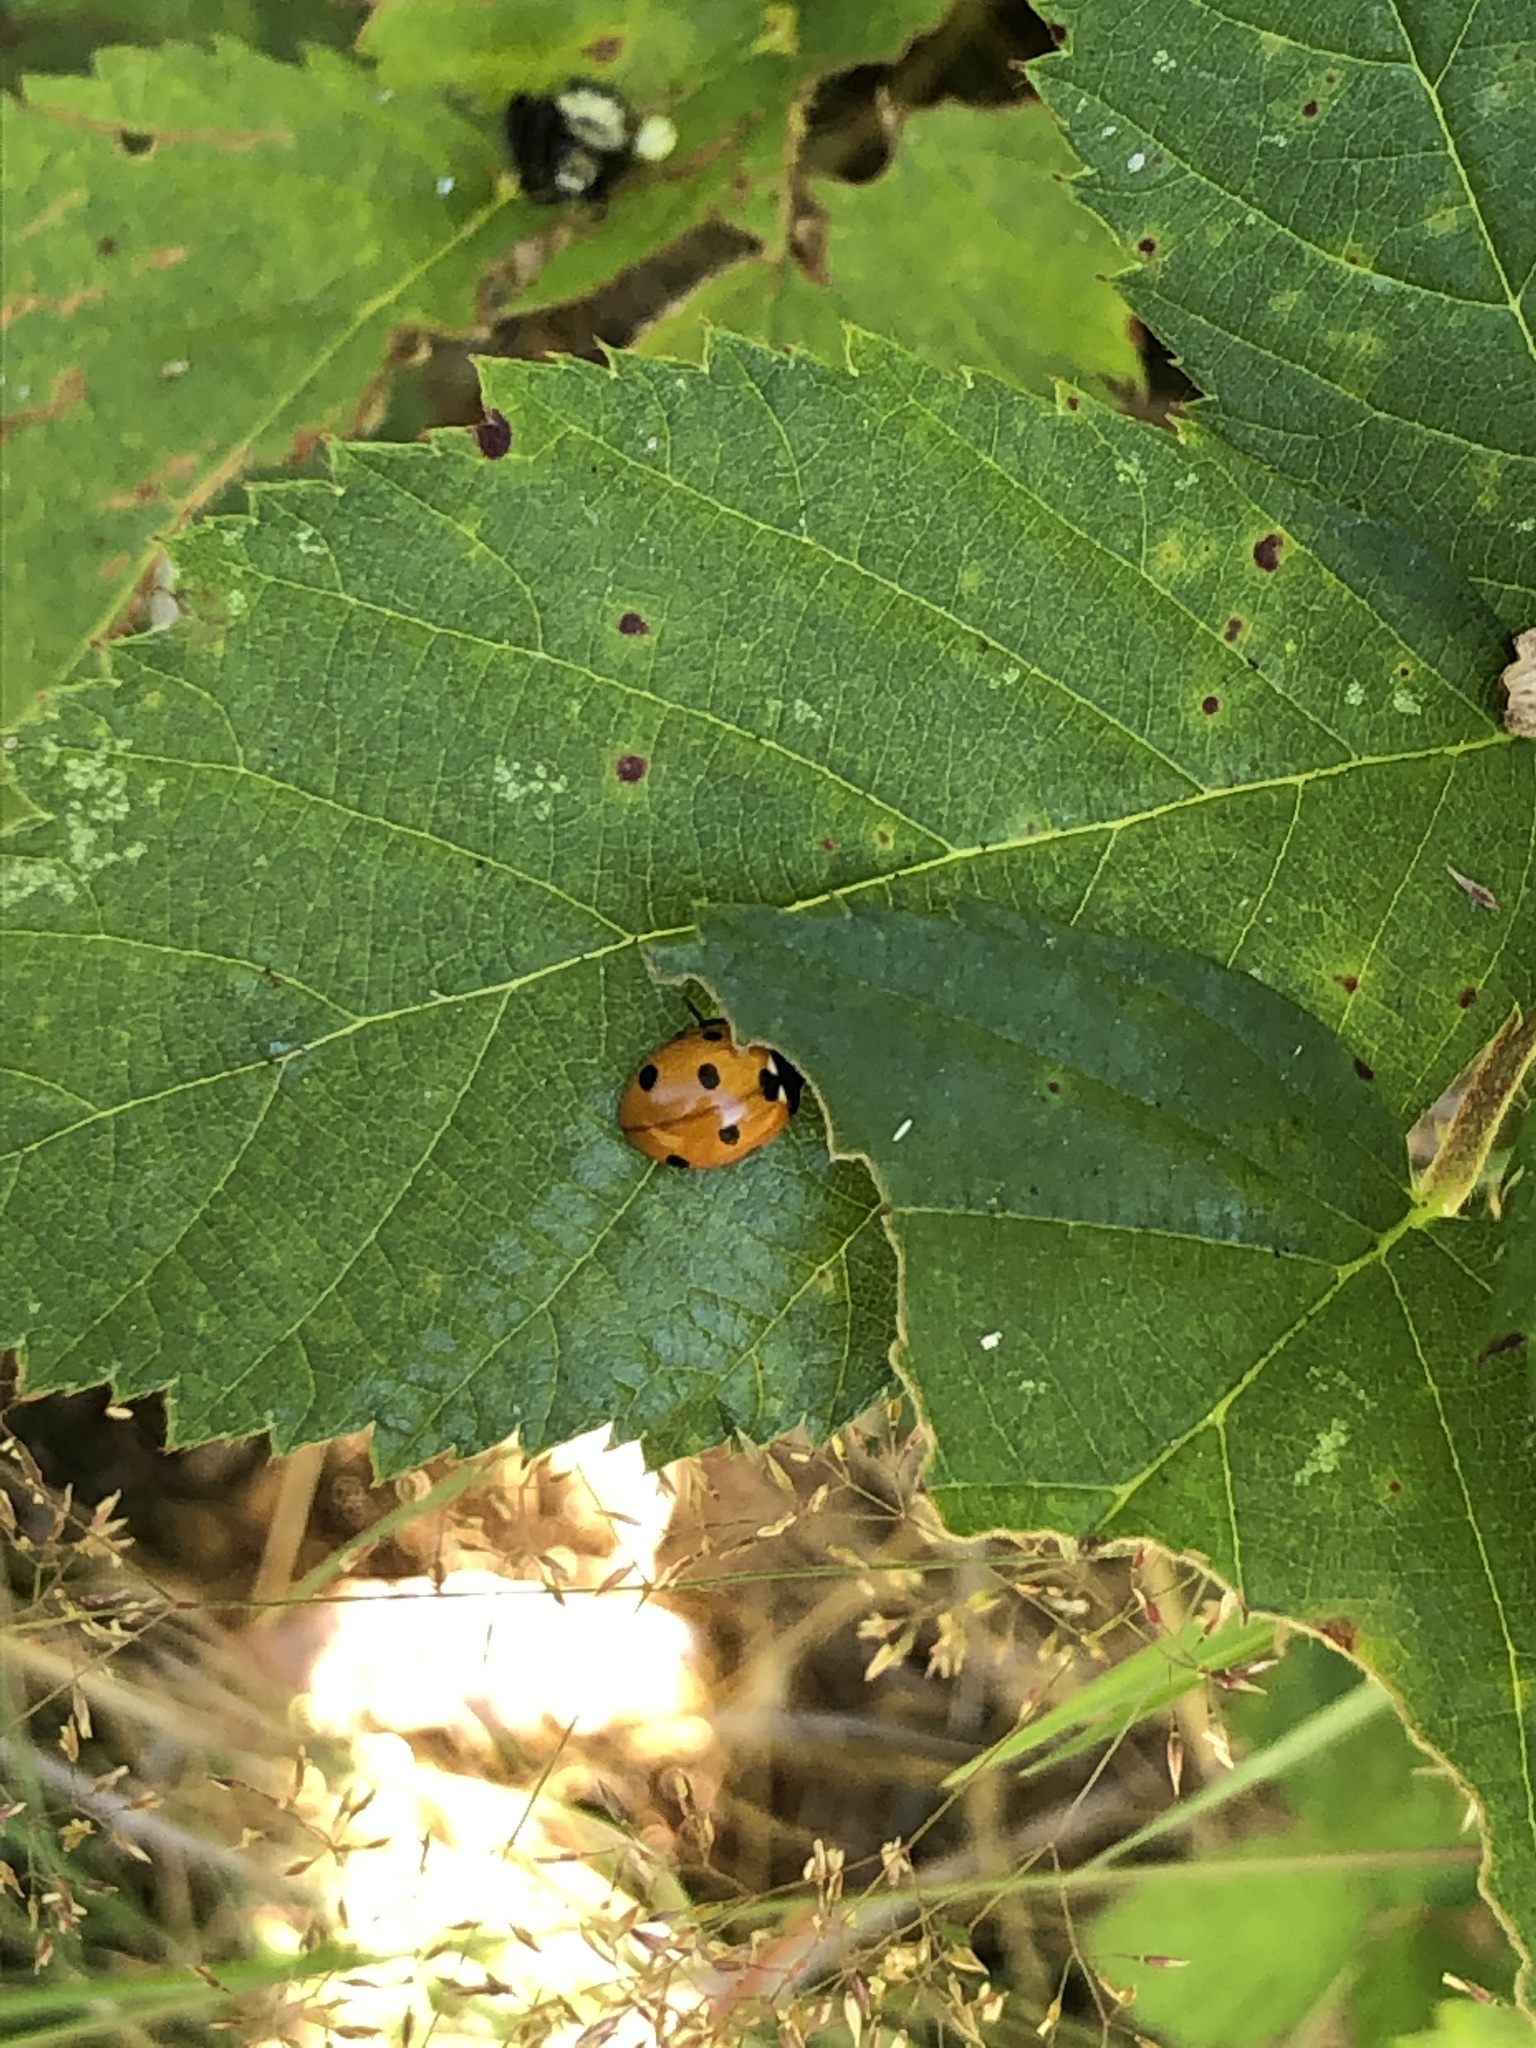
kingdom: Animalia
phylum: Arthropoda
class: Insecta
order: Coleoptera
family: Coccinellidae
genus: Coccinella
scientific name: Coccinella septempunctata
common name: Sevenspotted lady beetle
